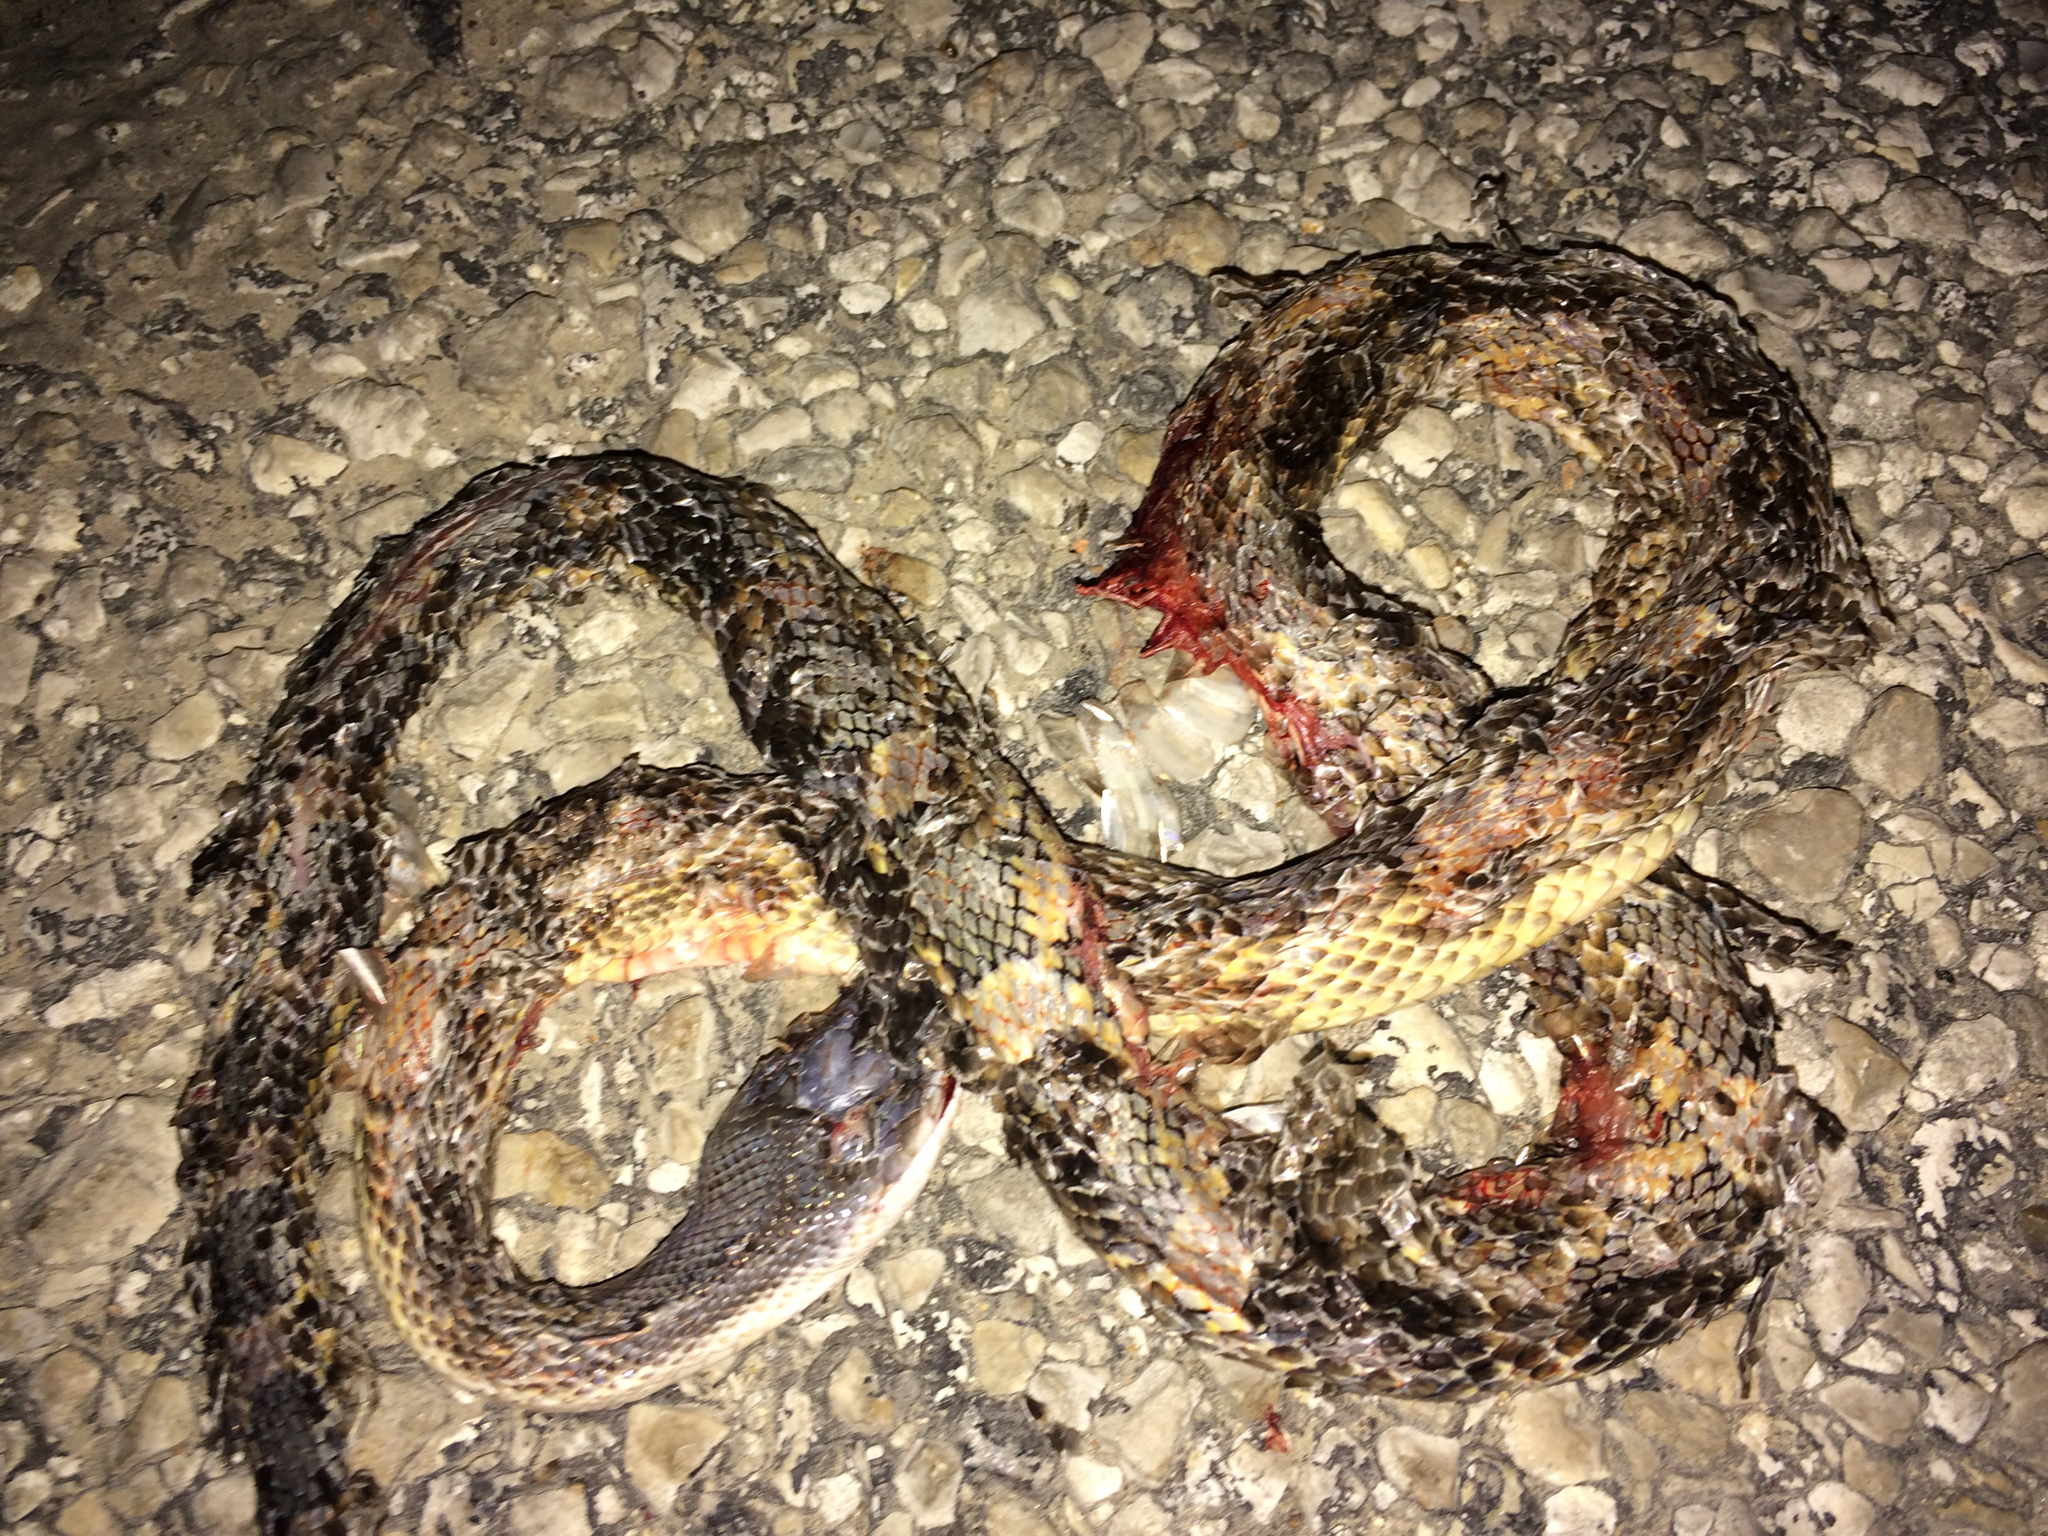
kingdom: Animalia
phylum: Chordata
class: Squamata
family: Colubridae
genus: Pantherophis
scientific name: Pantherophis obsoletus
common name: Black rat snake
